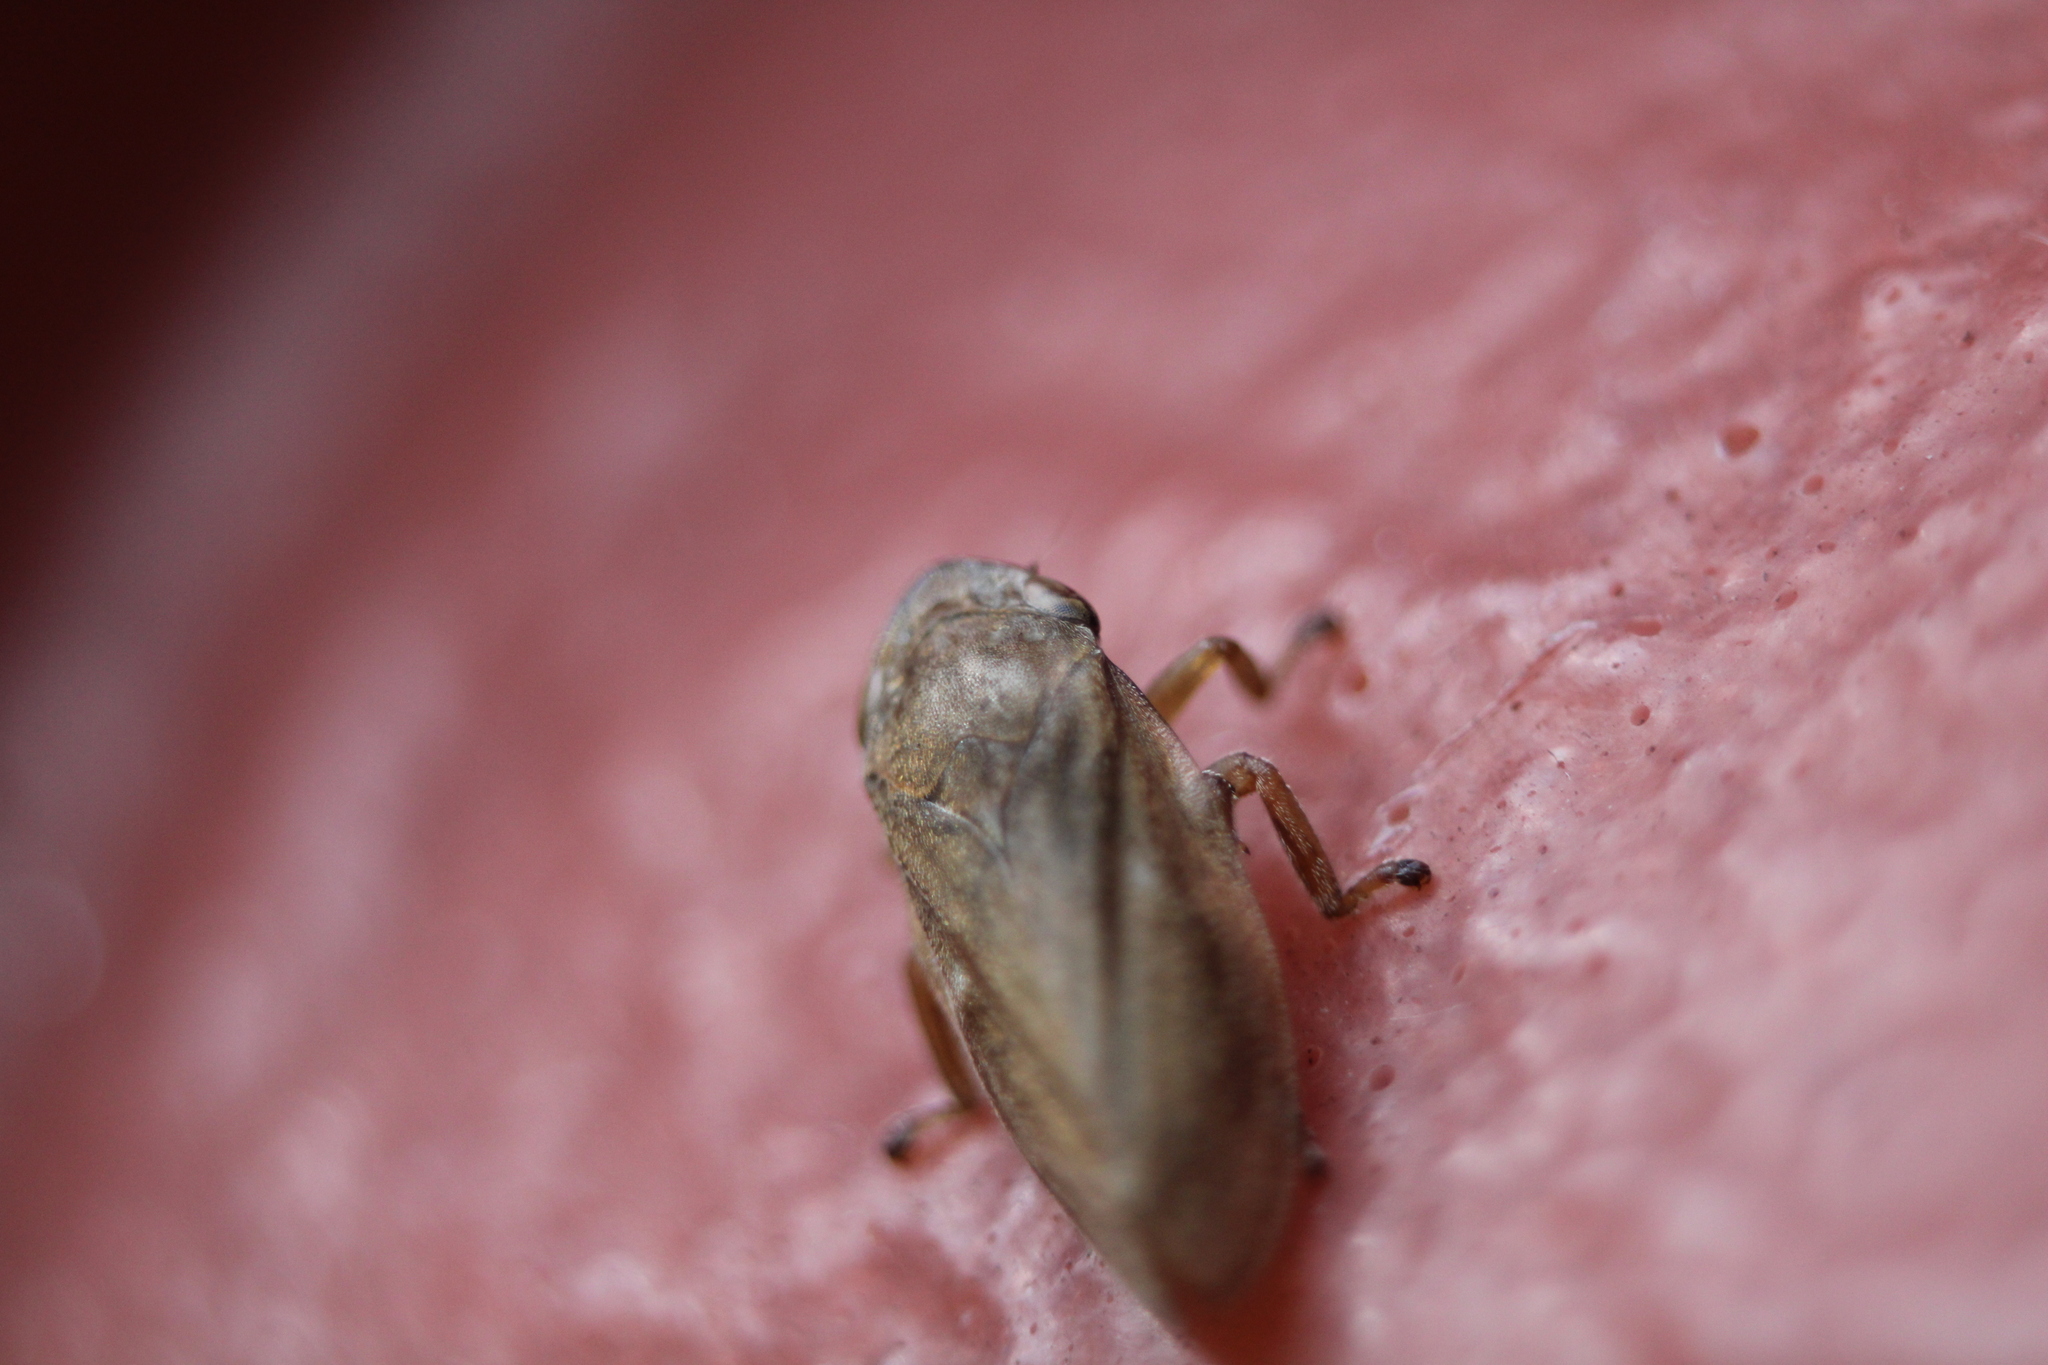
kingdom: Animalia
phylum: Arthropoda
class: Insecta
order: Hemiptera
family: Aphrophoridae
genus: Philaenus
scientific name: Philaenus spumarius
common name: Meadow spittlebug
